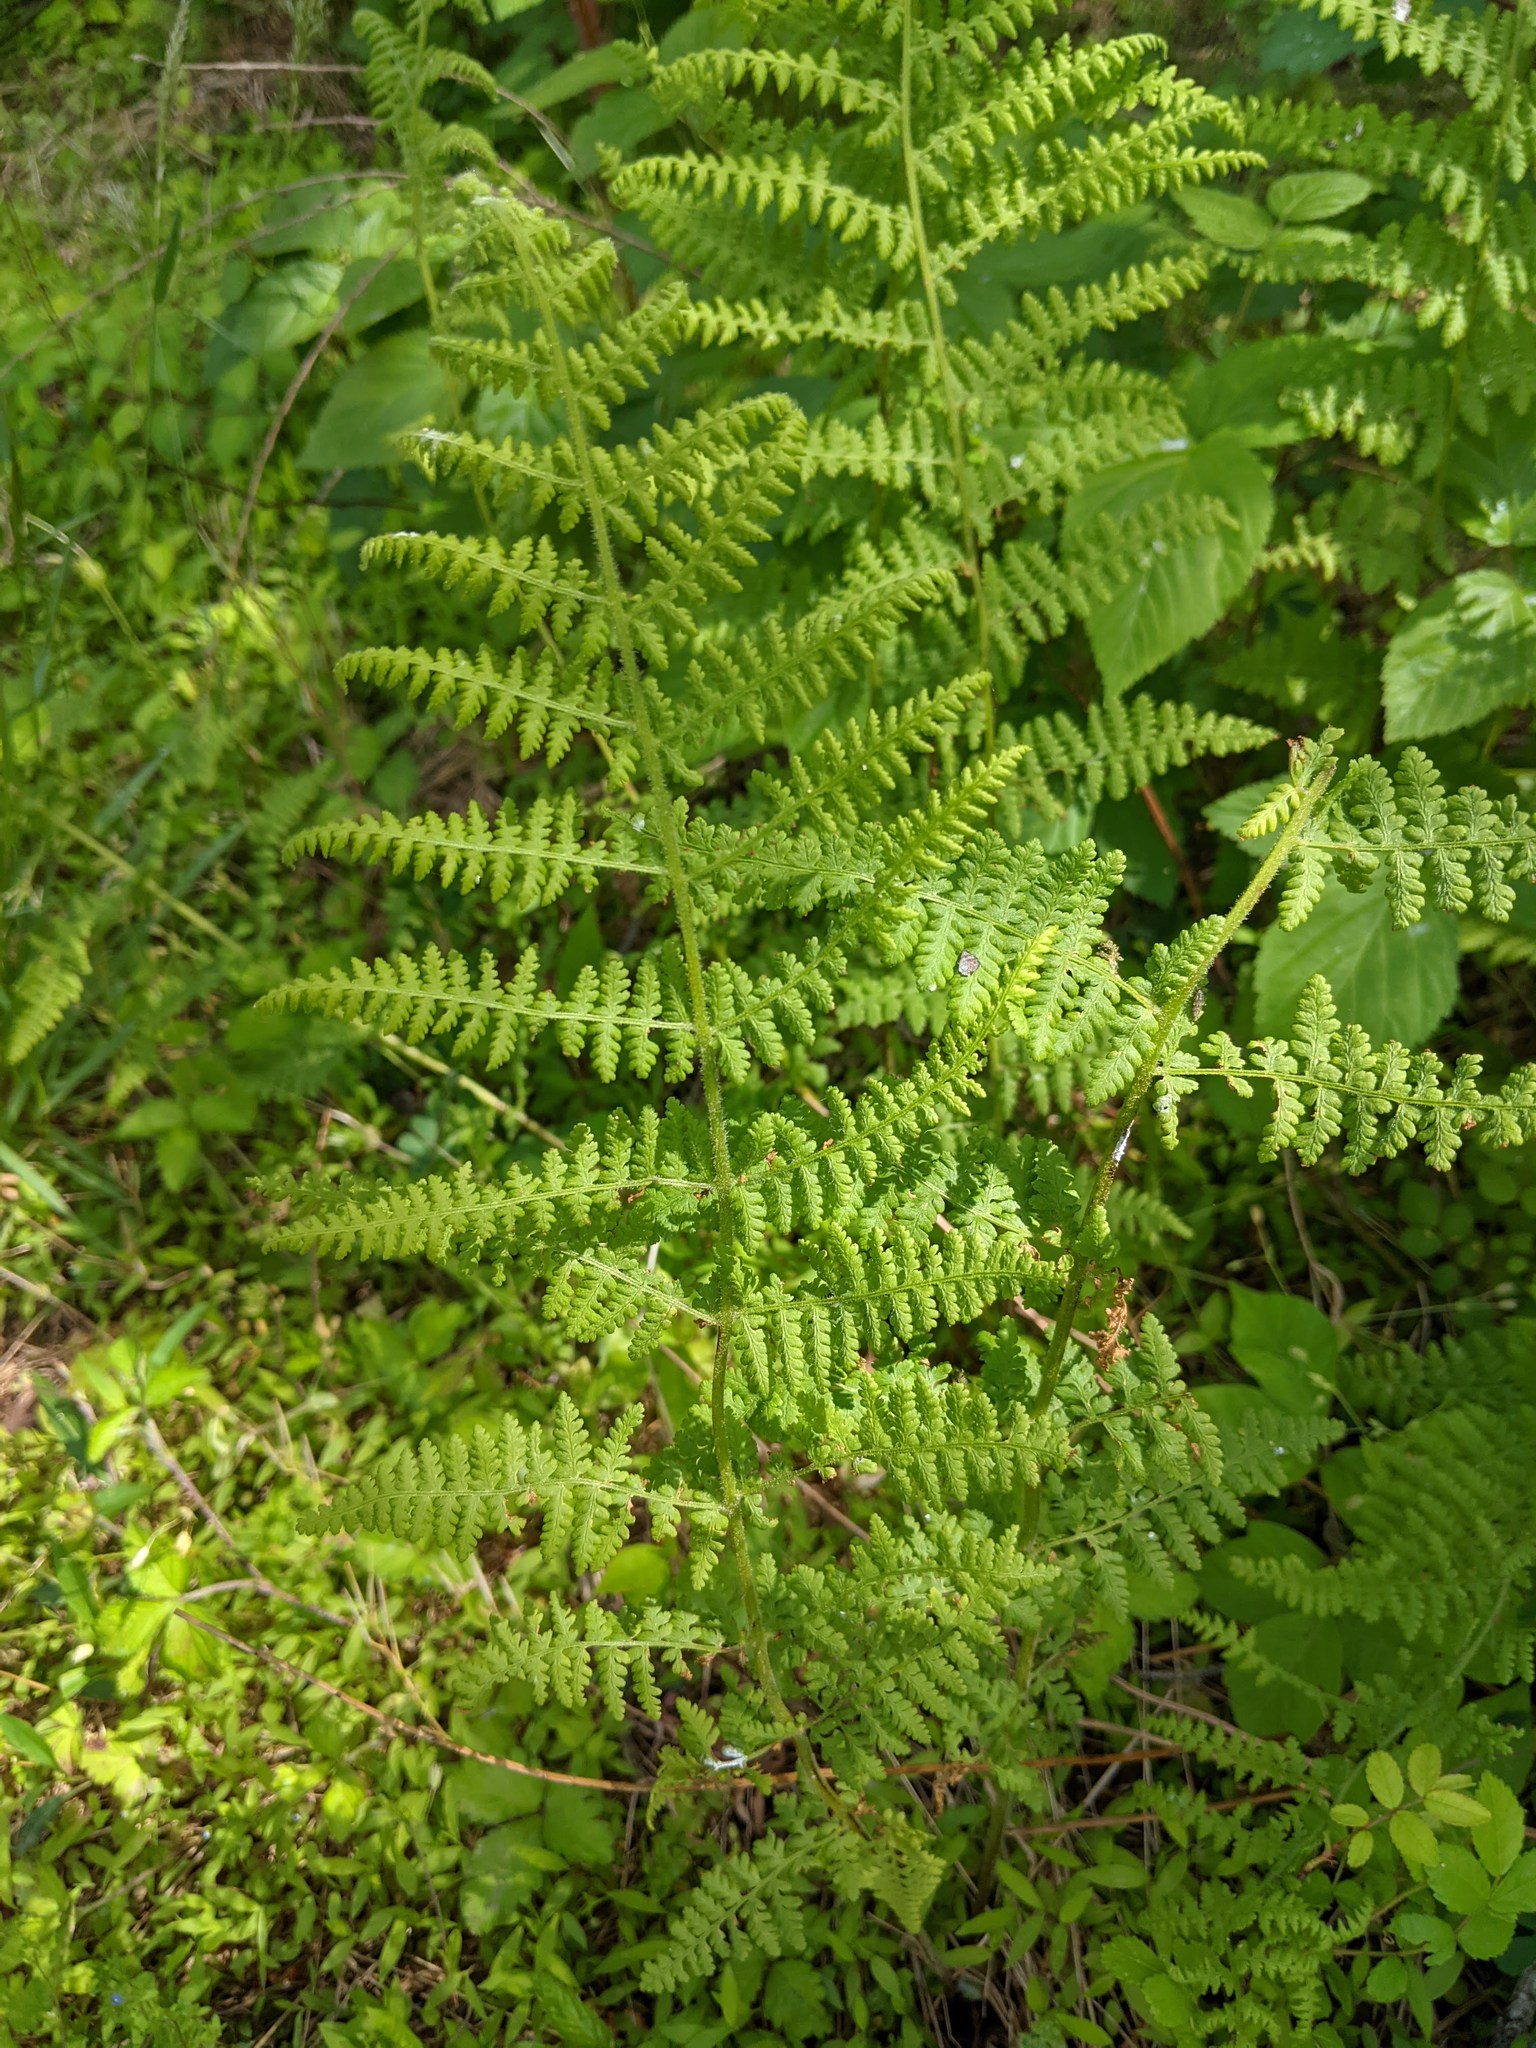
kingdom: Plantae
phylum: Tracheophyta
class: Polypodiopsida
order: Polypodiales
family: Dennstaedtiaceae
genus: Sitobolium
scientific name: Sitobolium punctilobum
